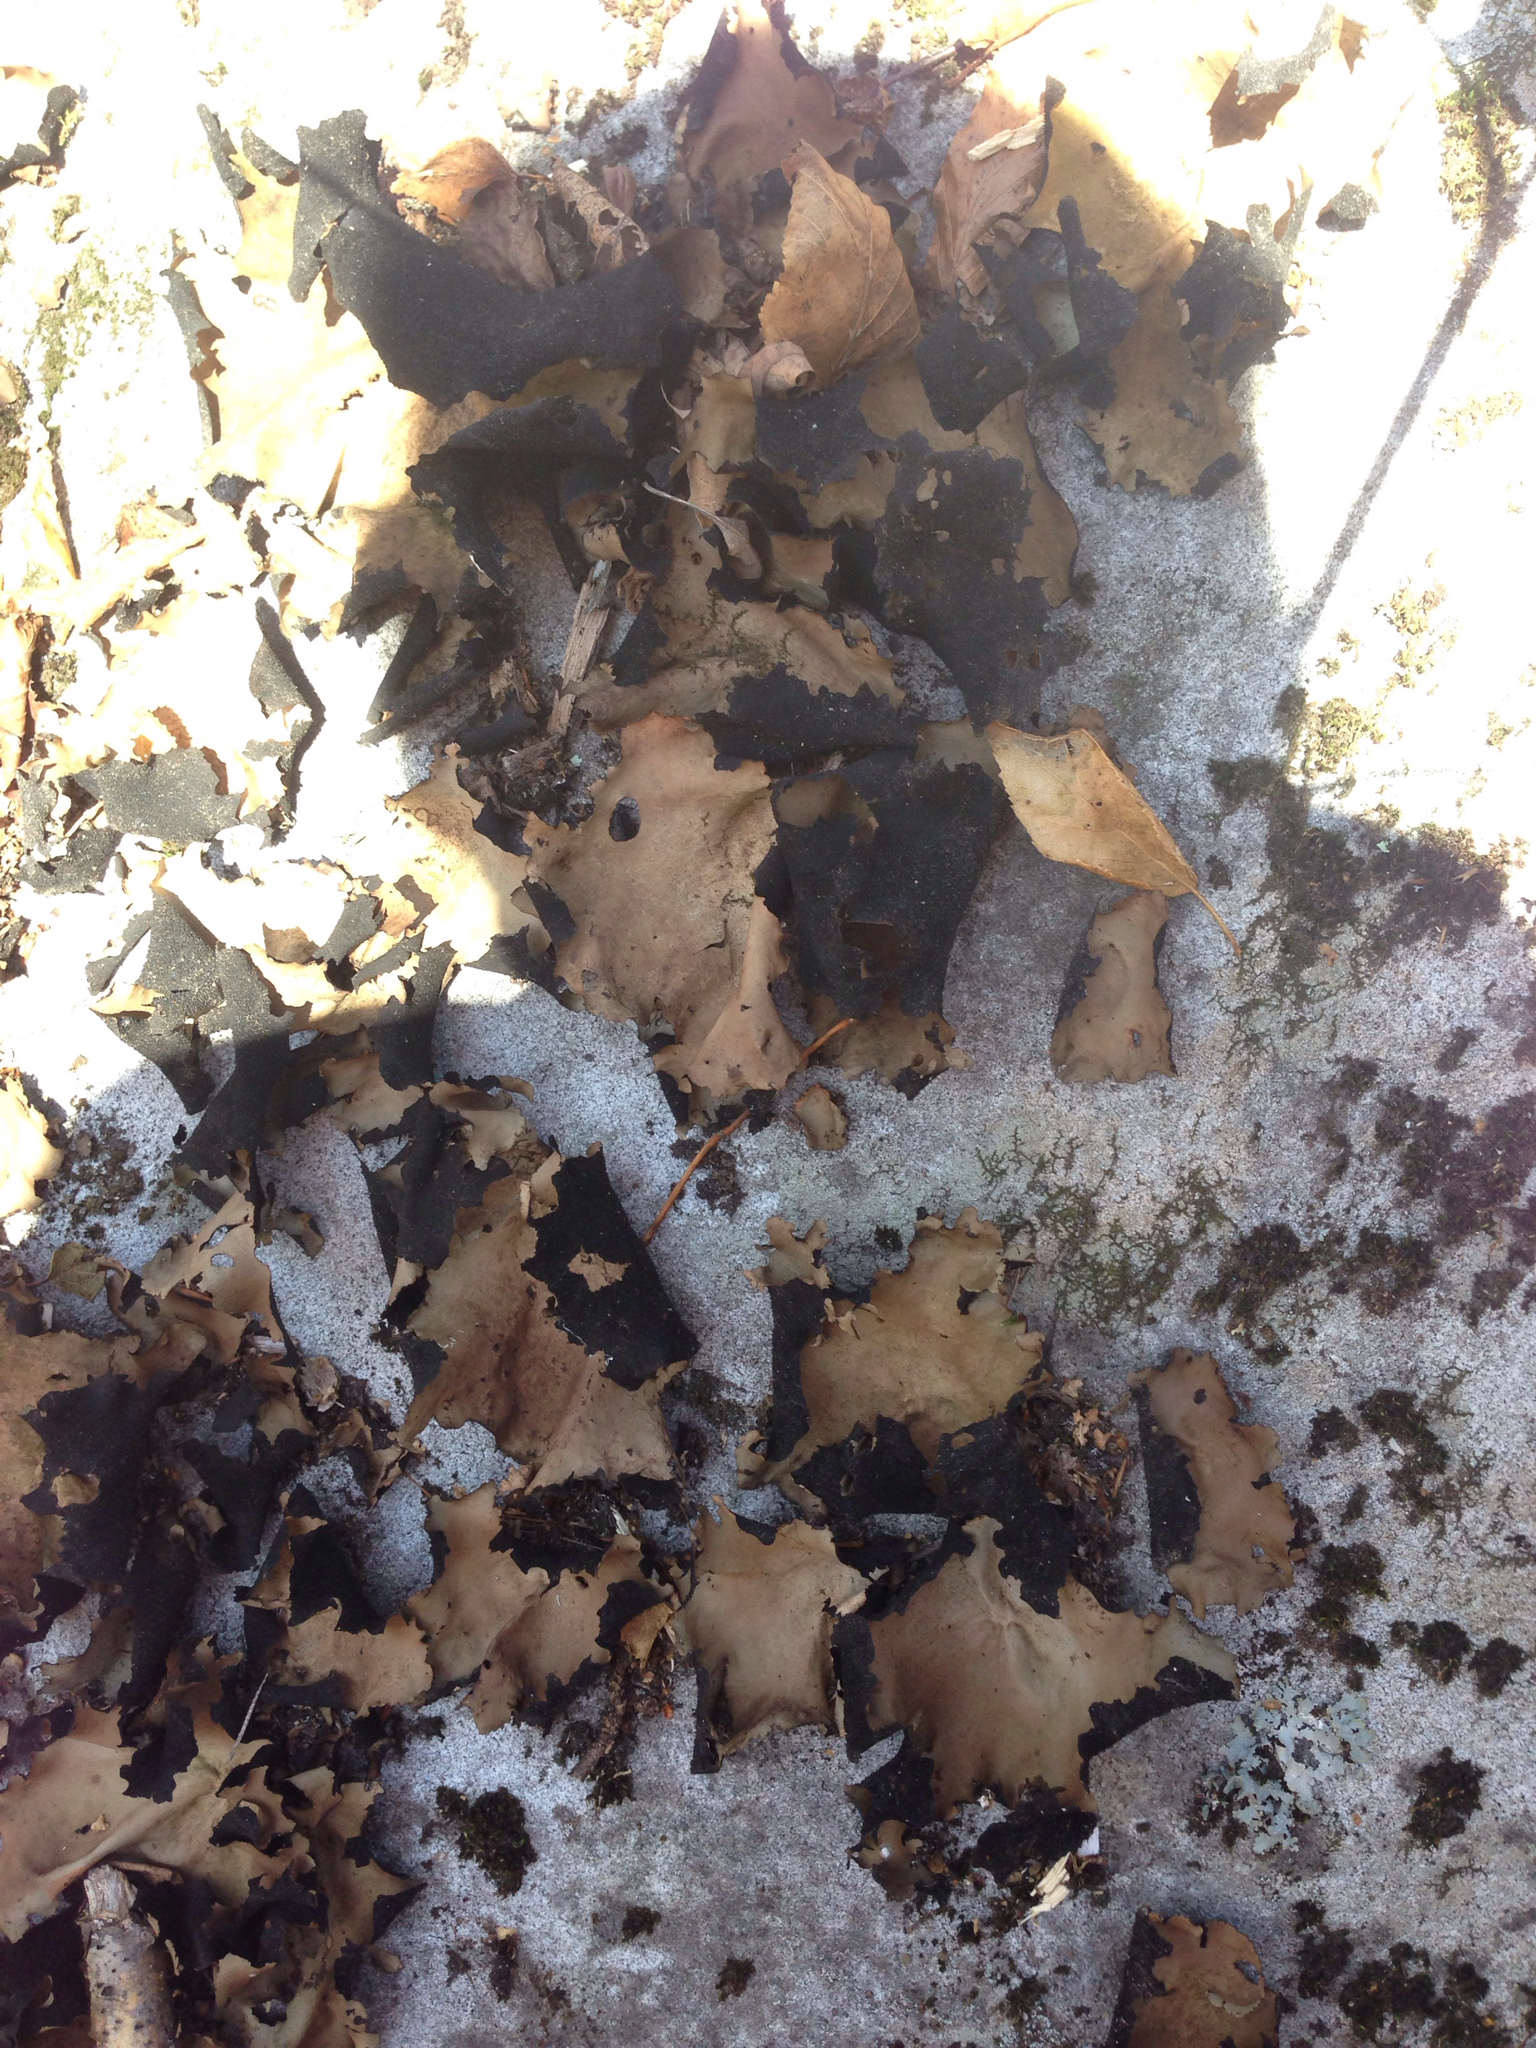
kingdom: Fungi
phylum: Ascomycota
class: Lecanoromycetes
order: Umbilicariales
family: Umbilicariaceae
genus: Umbilicaria
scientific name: Umbilicaria mammulata
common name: Smooth rock tripe
